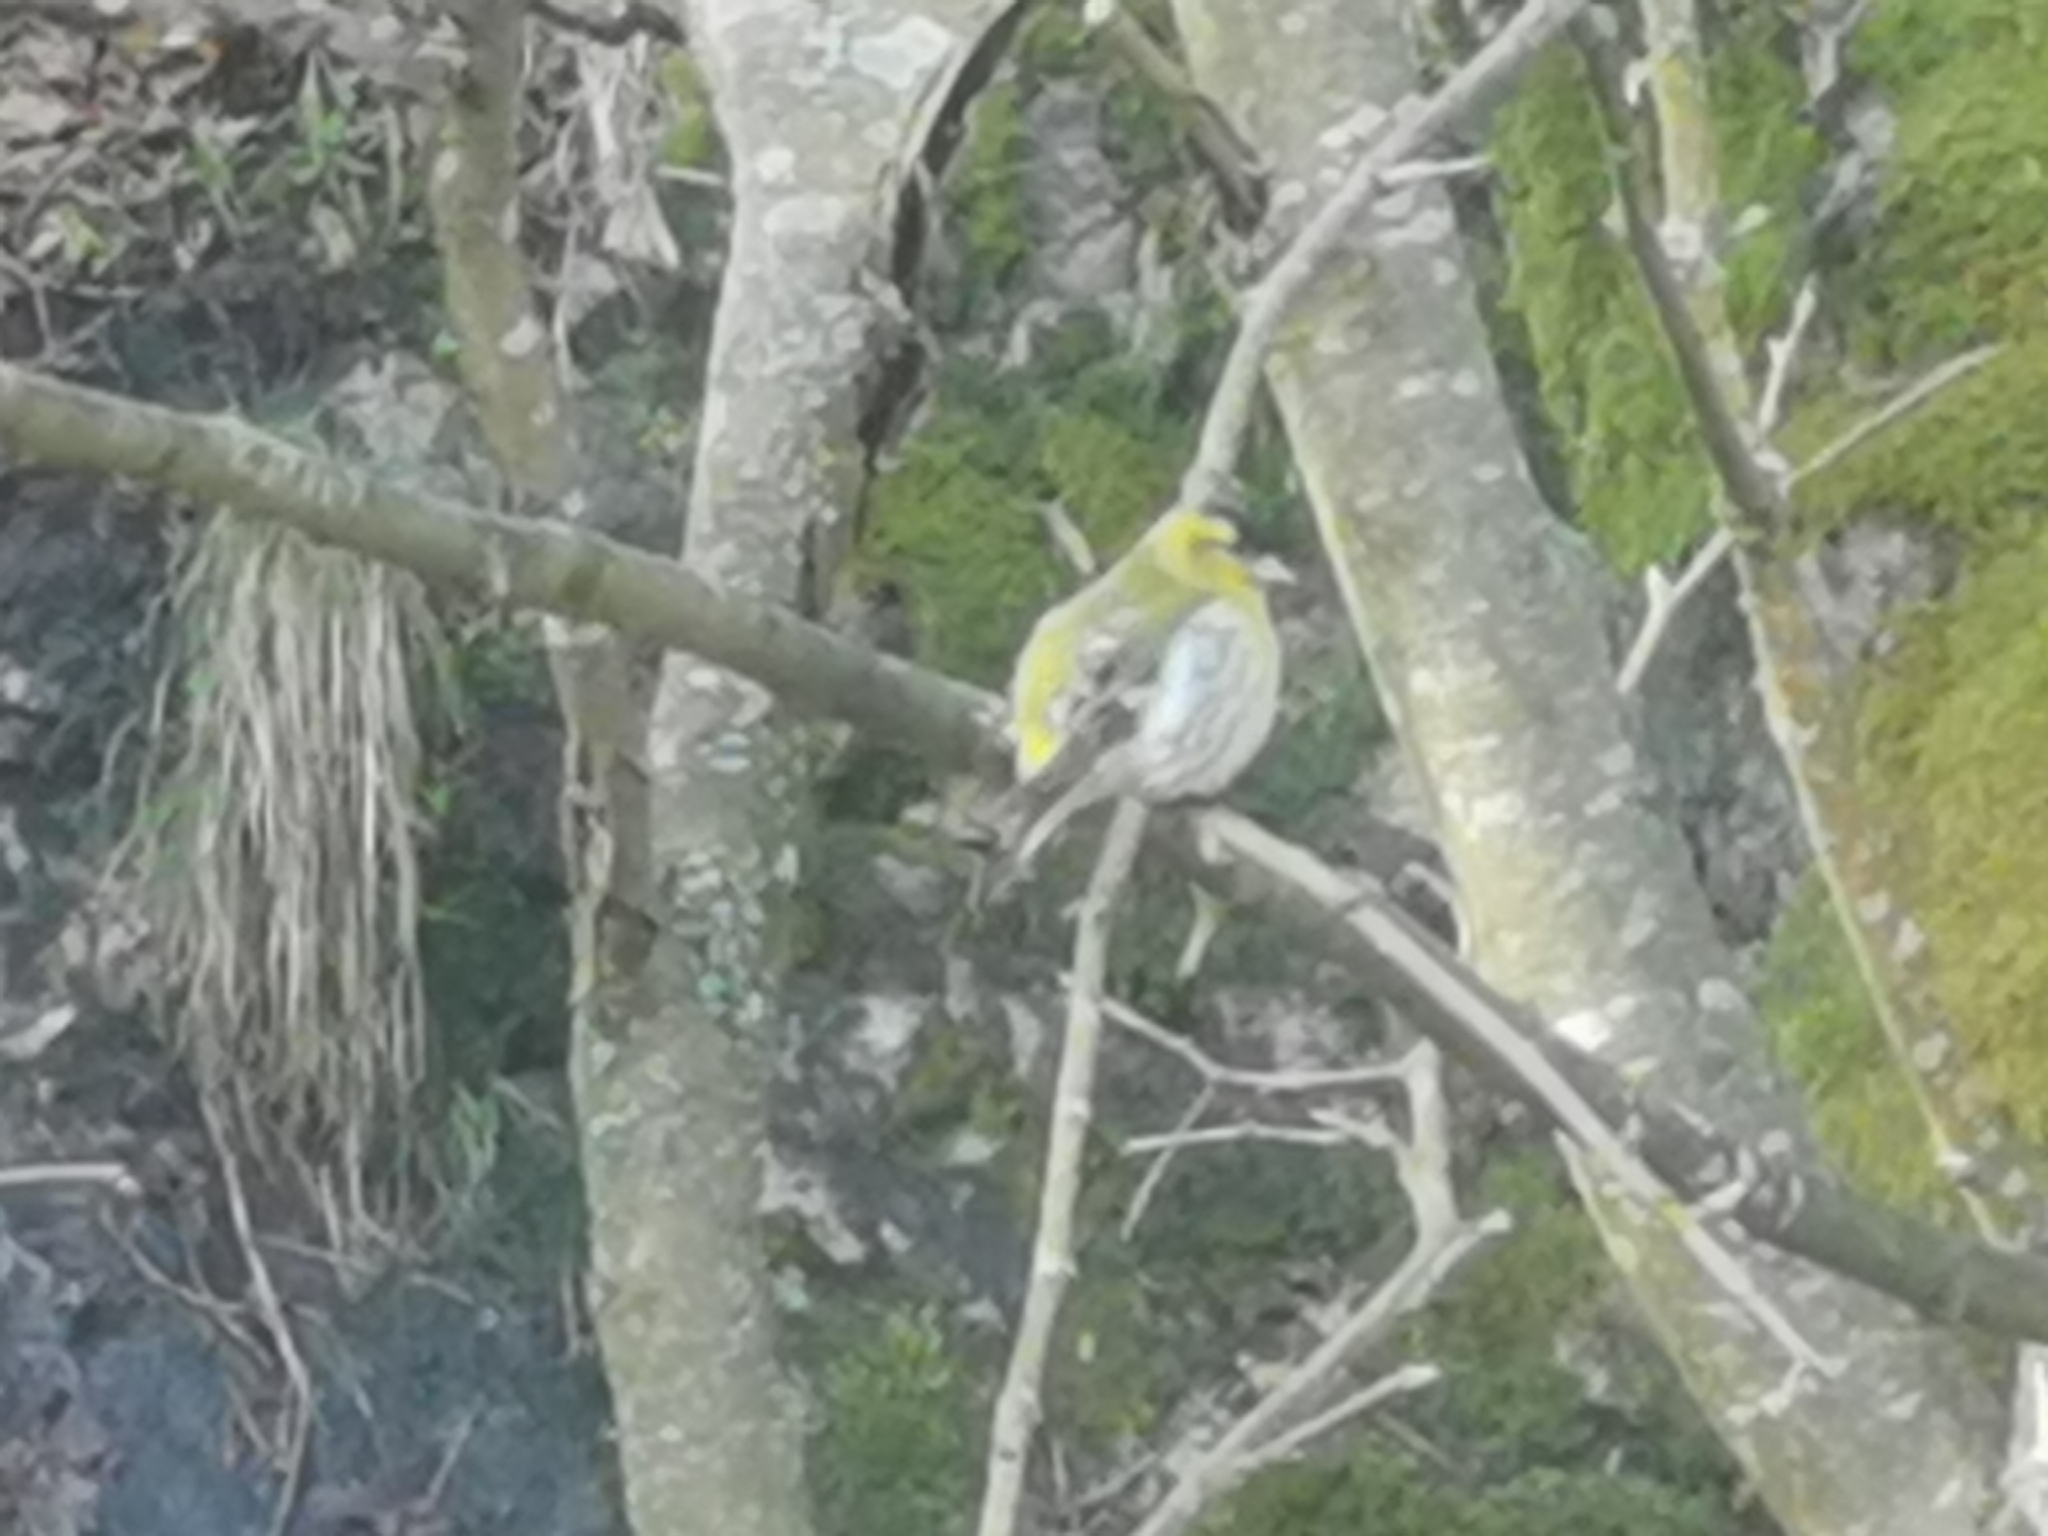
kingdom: Animalia
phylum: Chordata
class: Aves
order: Passeriformes
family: Fringillidae
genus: Spinus
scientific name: Spinus spinus
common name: Eurasian siskin
